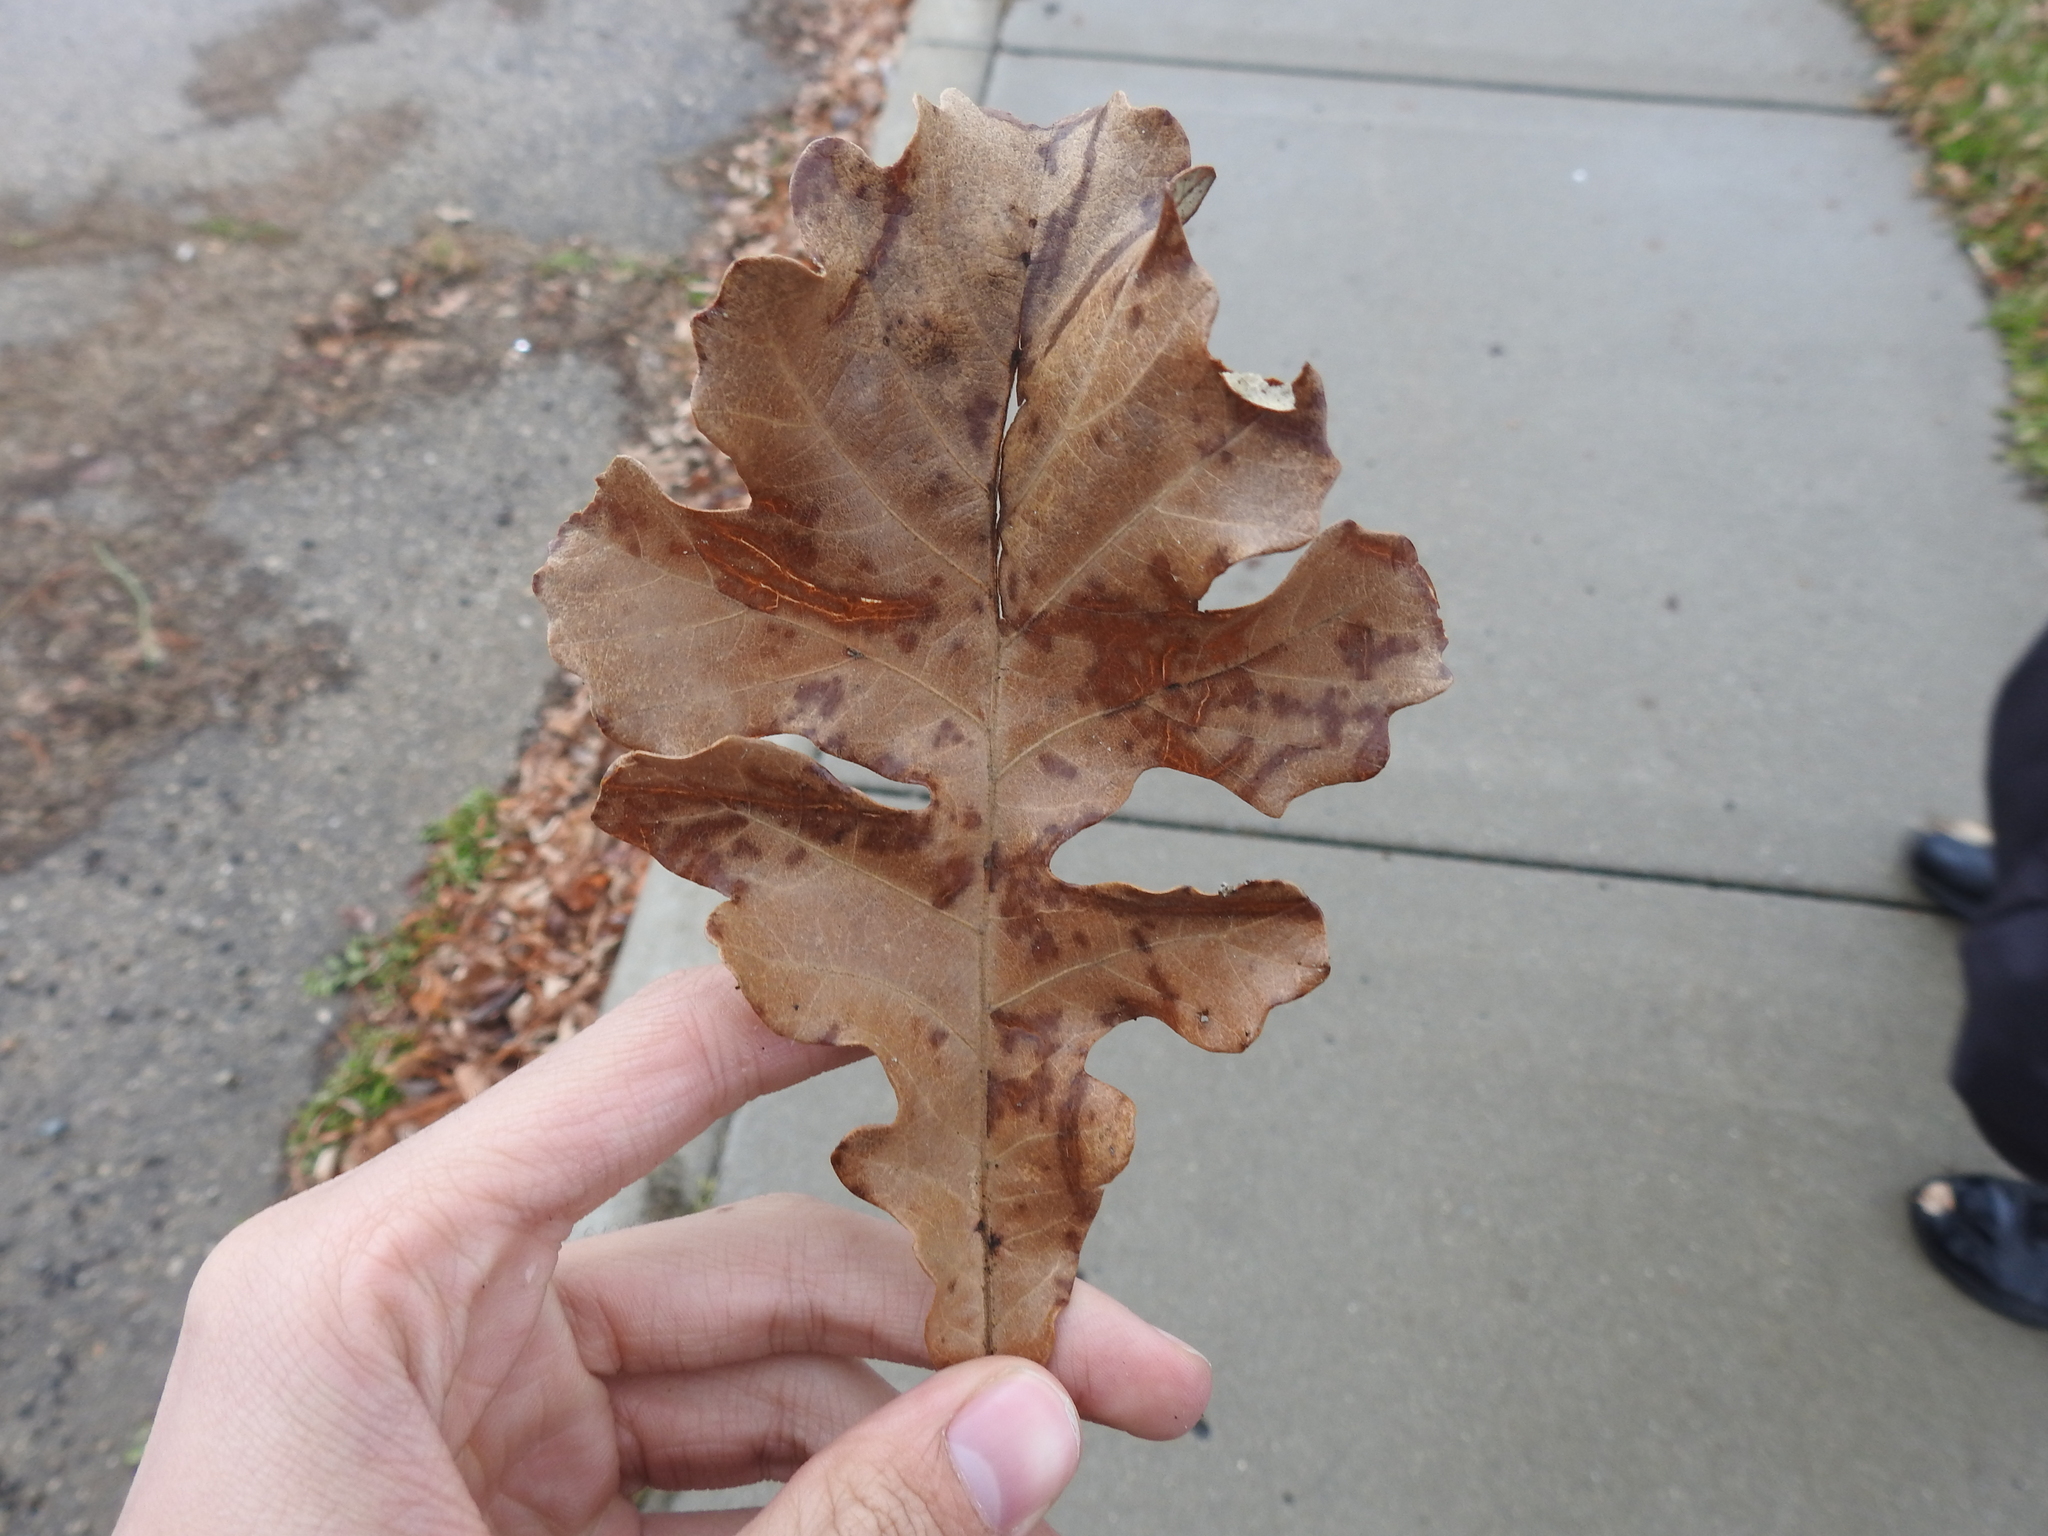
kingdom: Plantae
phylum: Tracheophyta
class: Magnoliopsida
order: Fagales
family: Fagaceae
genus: Quercus
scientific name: Quercus macrocarpa
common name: Bur oak
